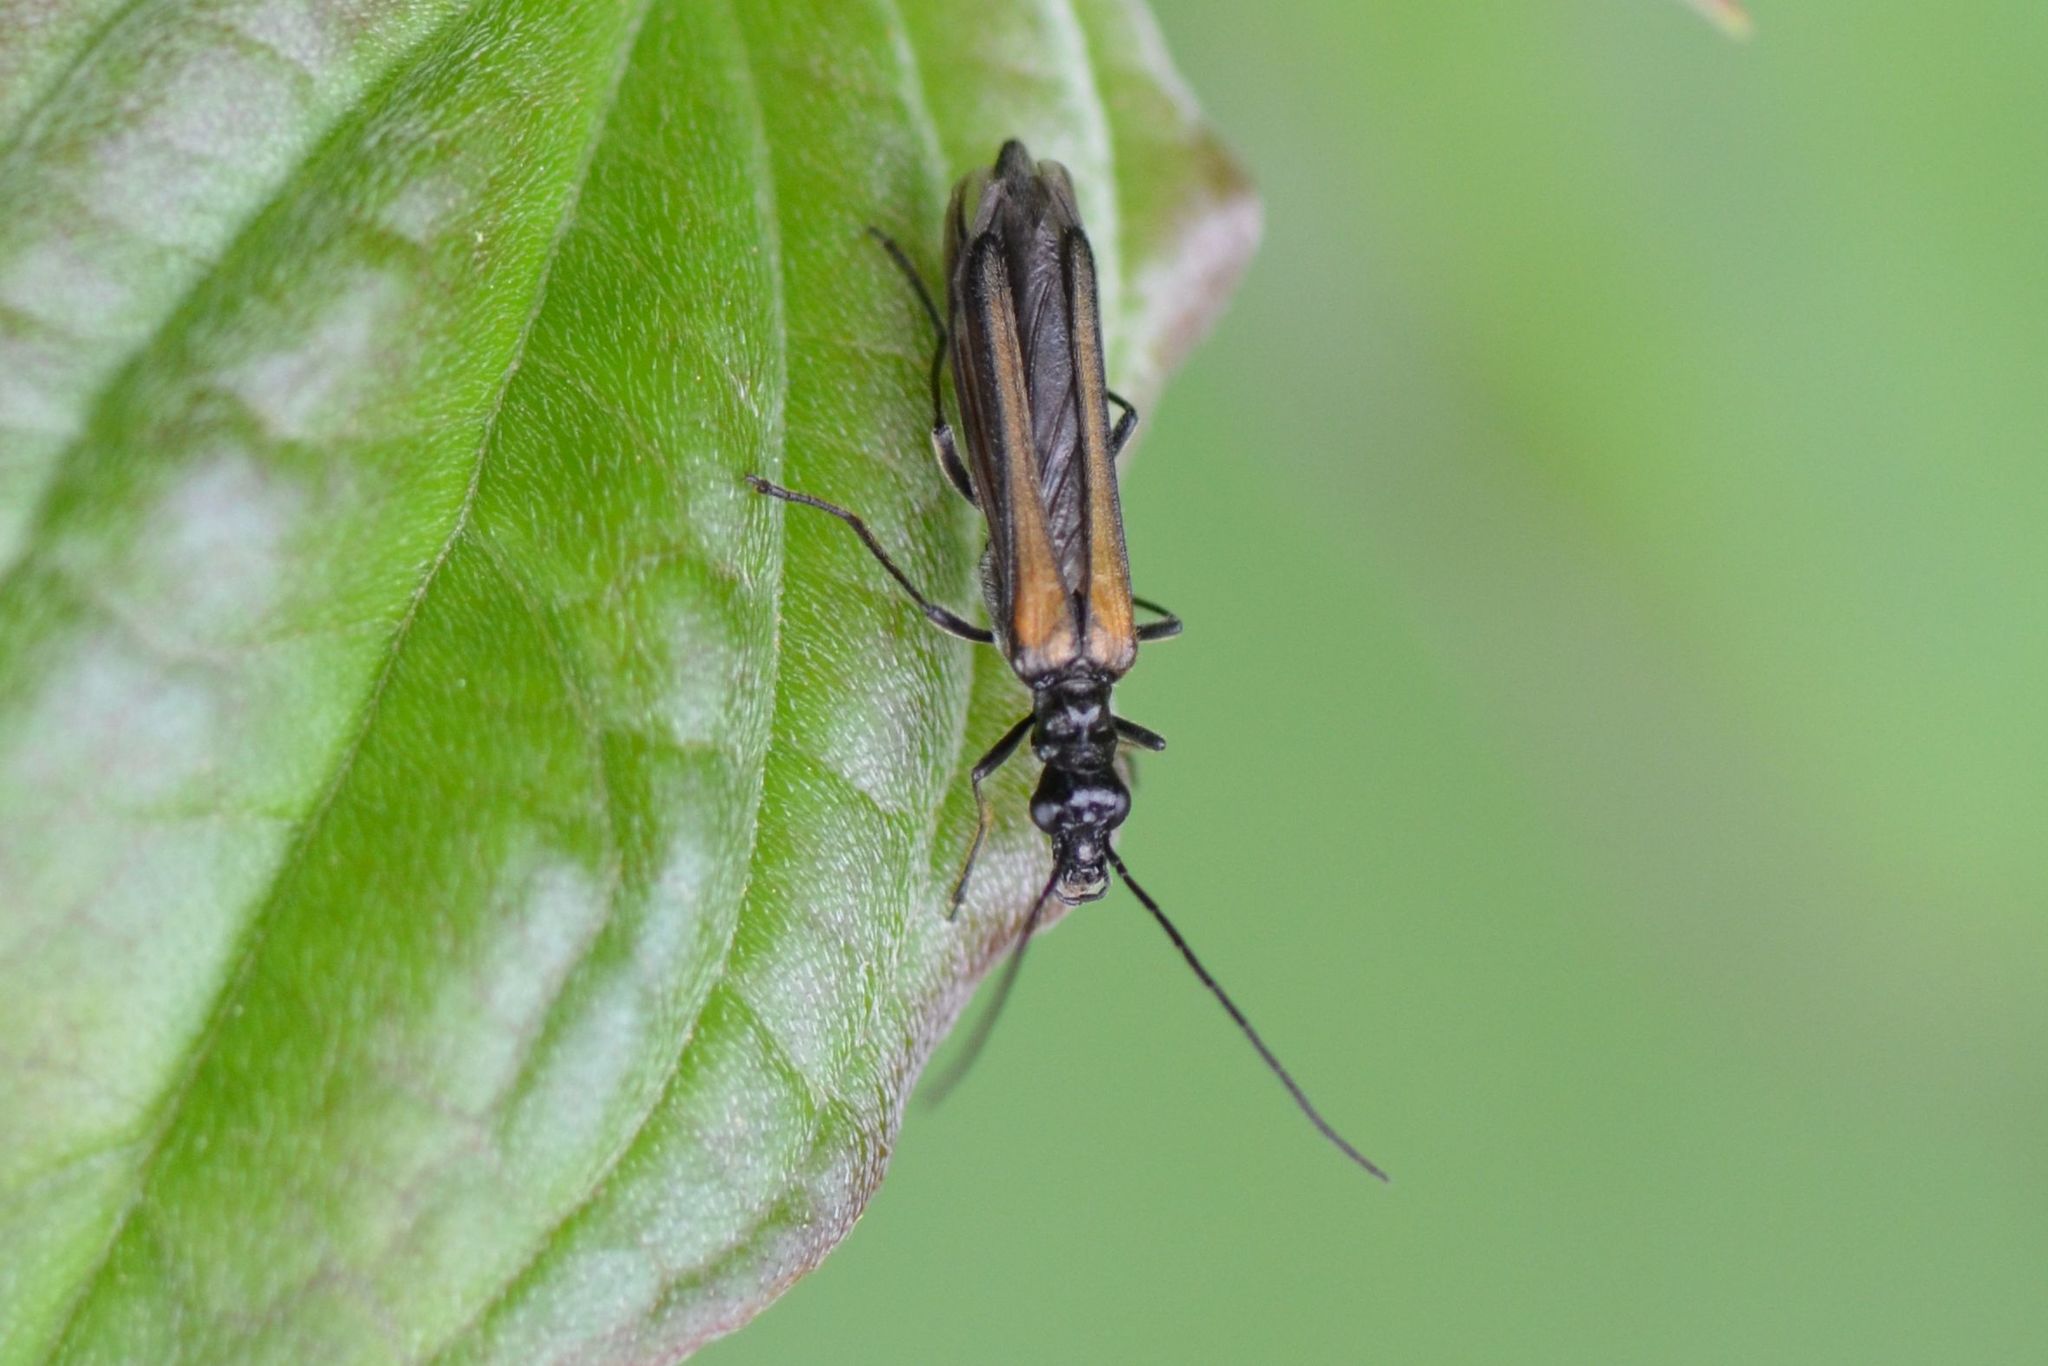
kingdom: Animalia
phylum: Arthropoda
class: Insecta
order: Coleoptera
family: Oedemeridae
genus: Oedemera
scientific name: Oedemera pthysica
